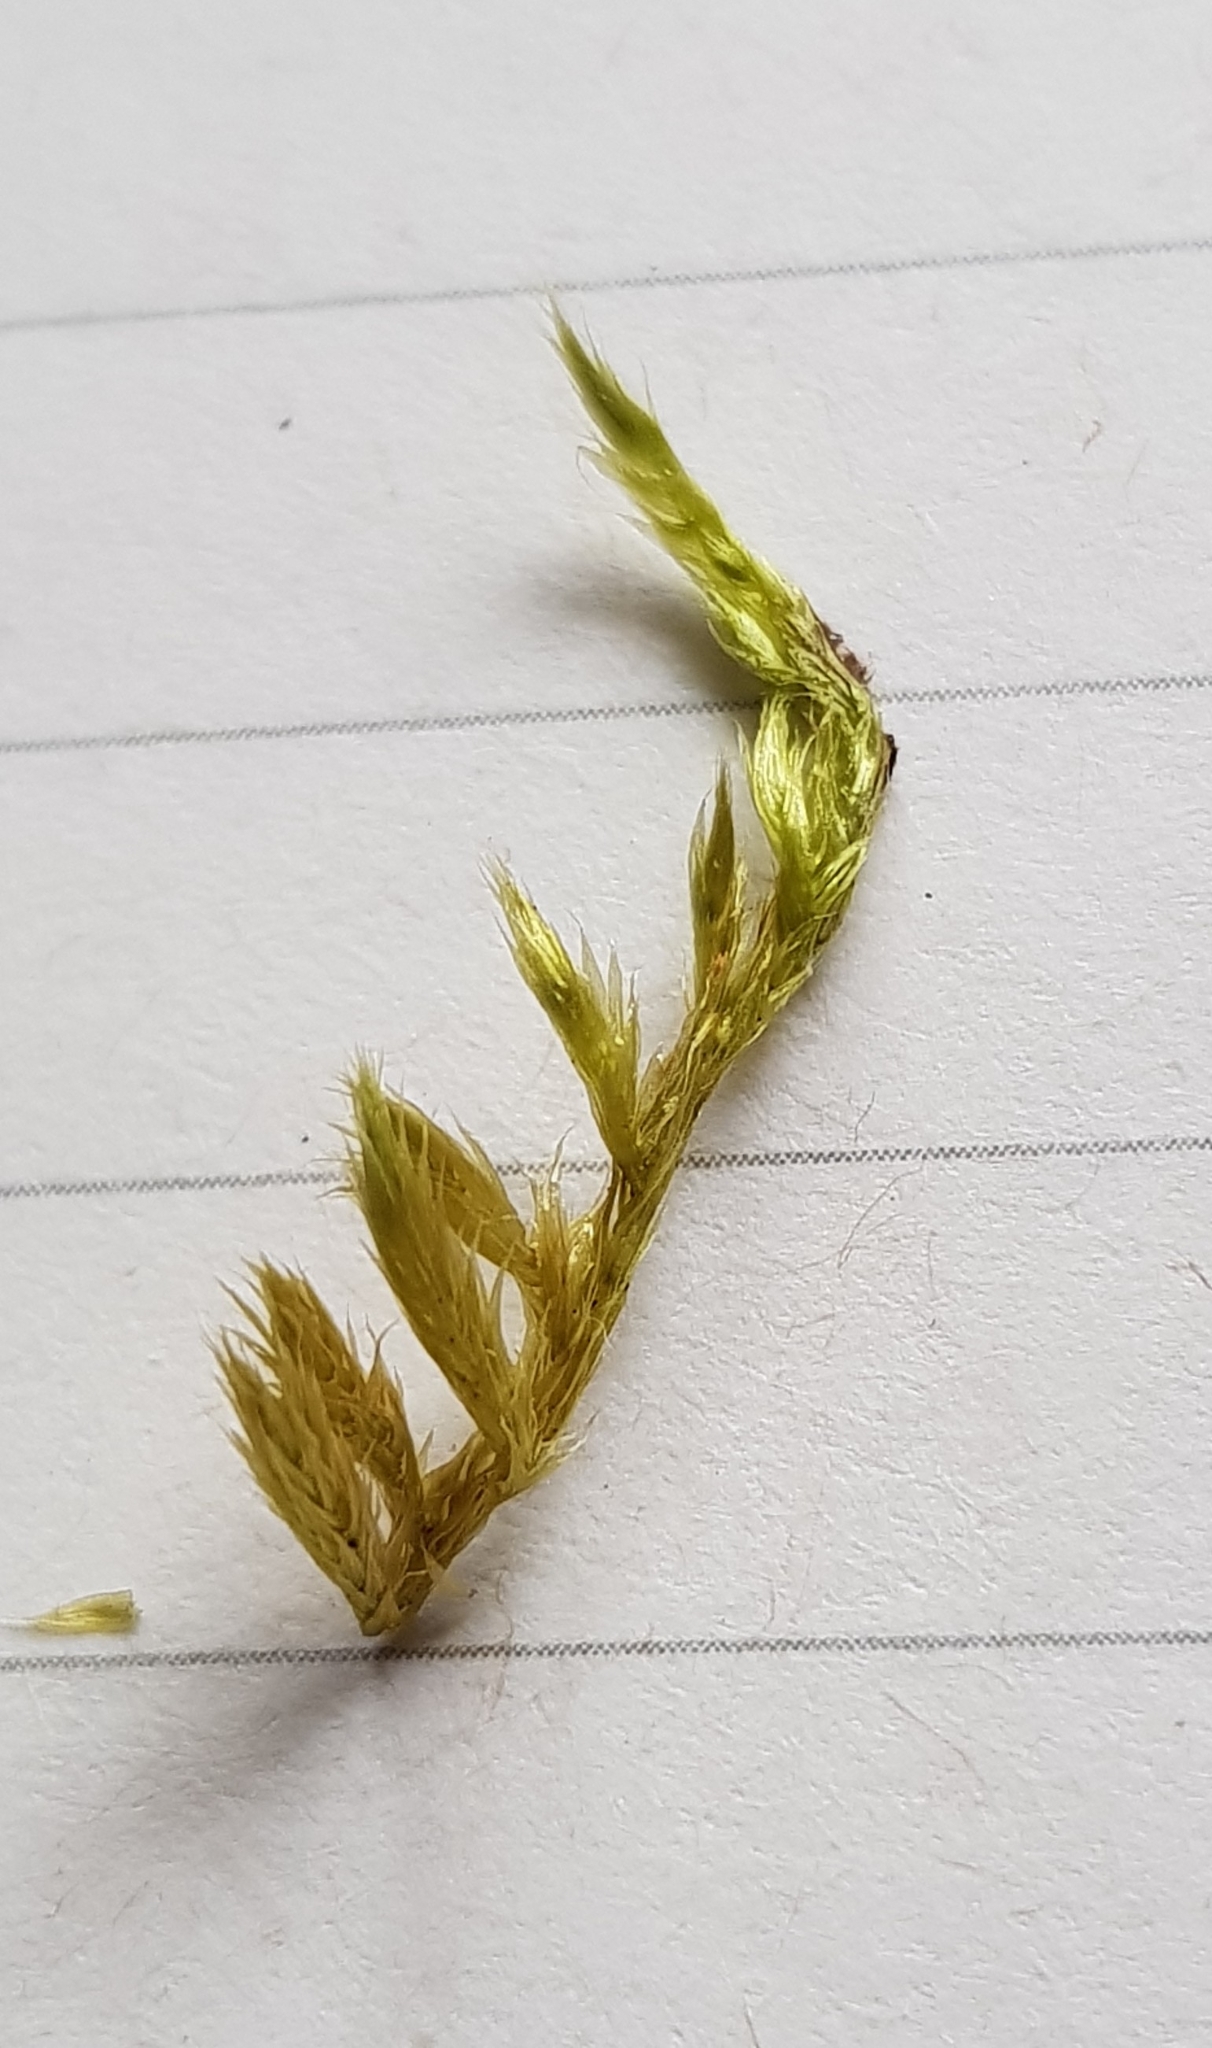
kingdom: Plantae
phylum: Bryophyta
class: Bryopsida
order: Hypnales
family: Brachytheciaceae
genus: Homalothecium
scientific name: Homalothecium lutescens
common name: Yellow feather-moss
